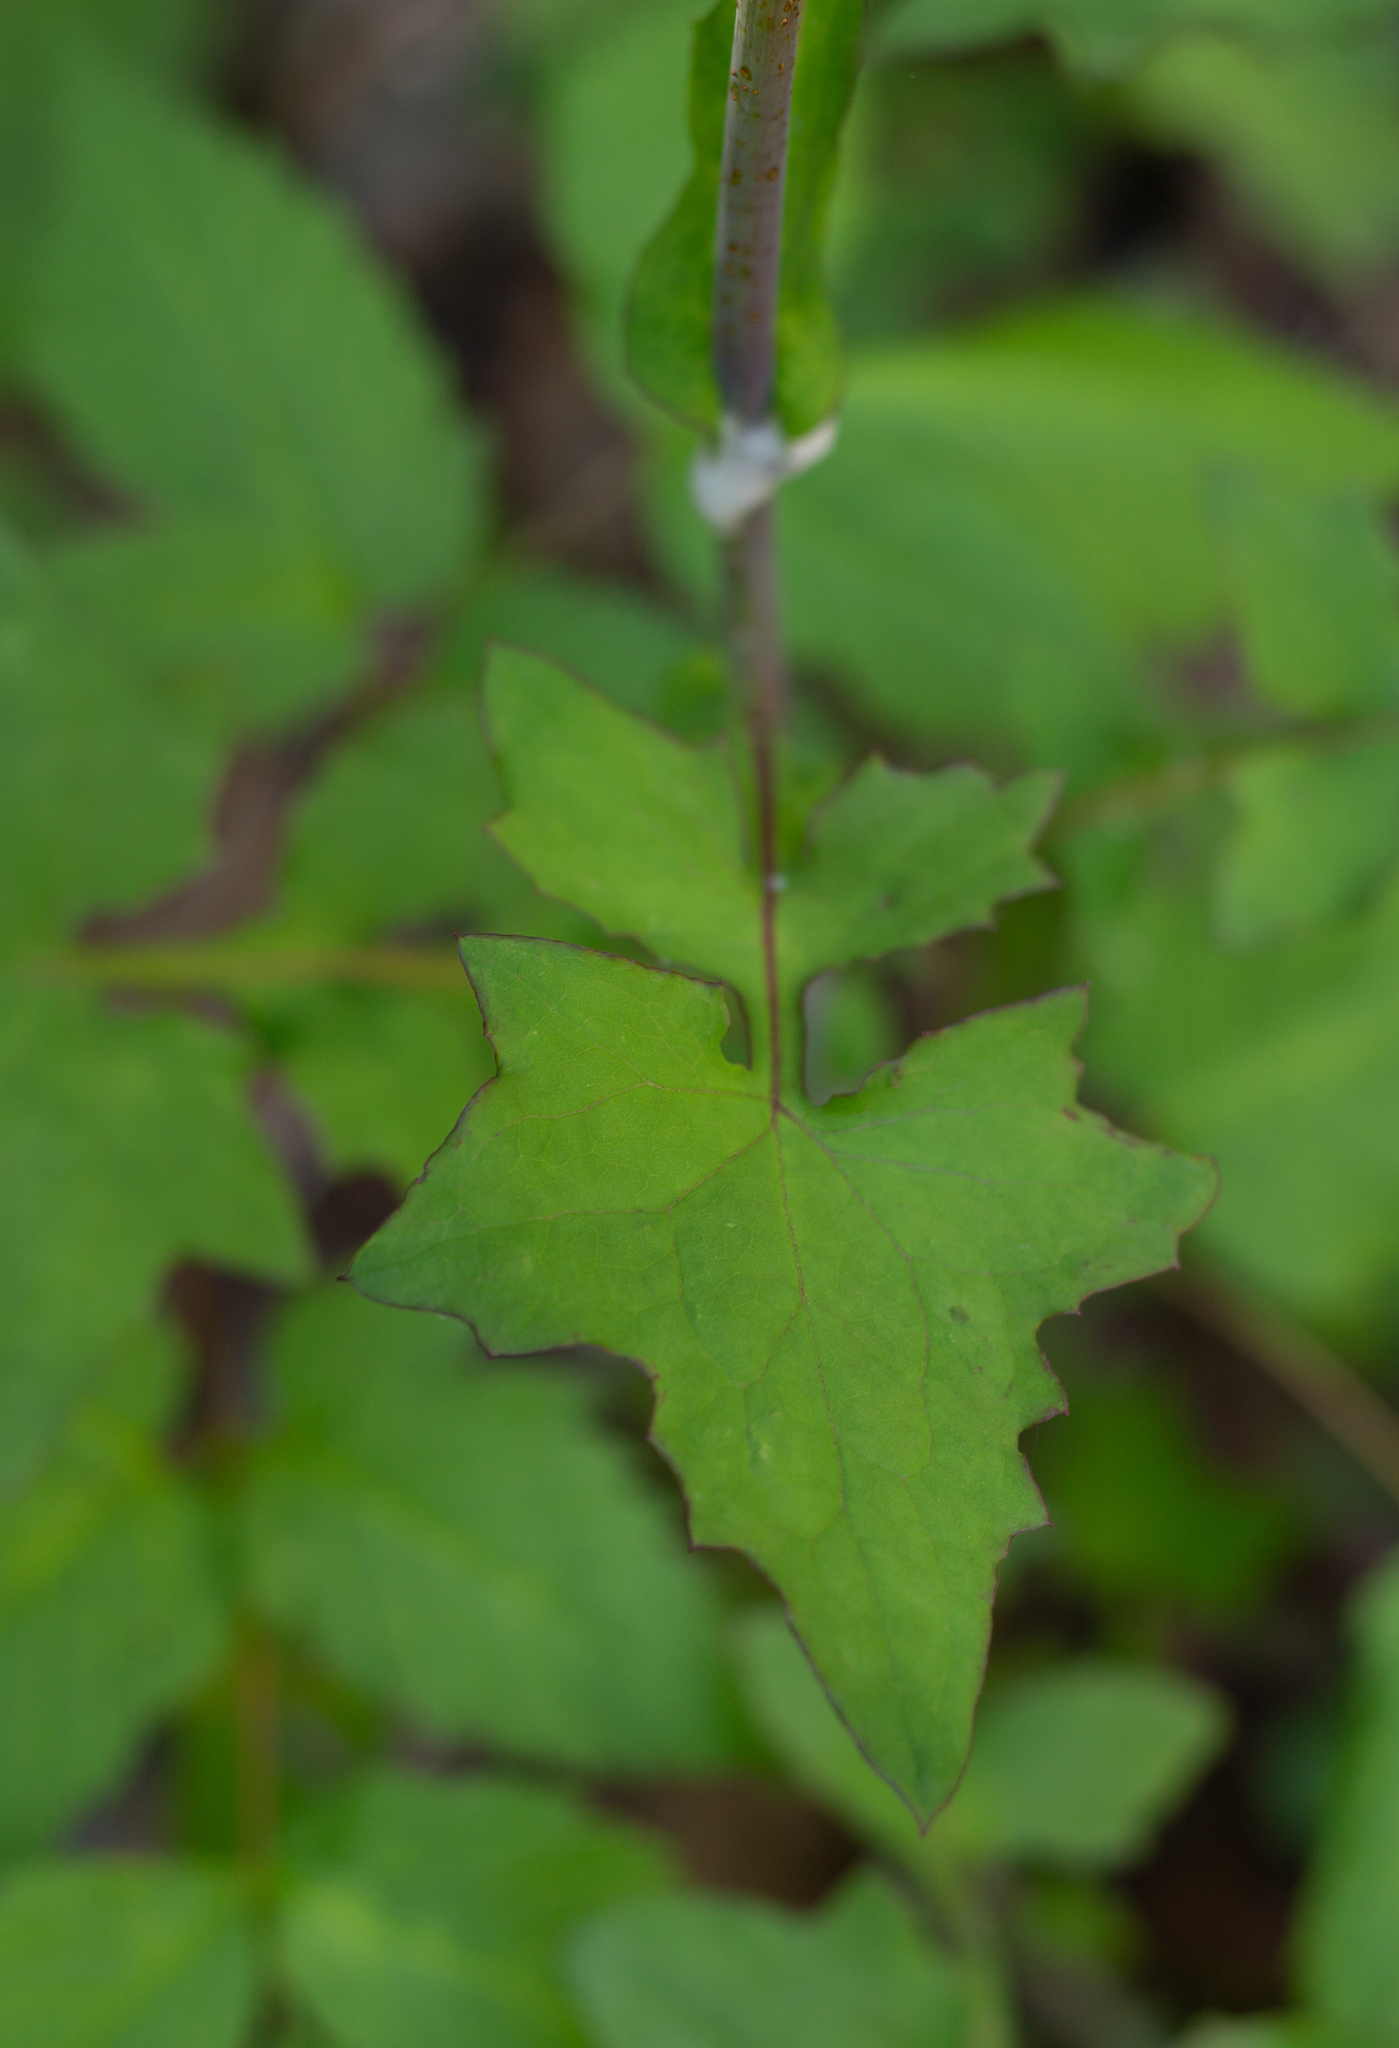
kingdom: Plantae
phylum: Tracheophyta
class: Magnoliopsida
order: Asterales
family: Asteraceae
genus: Mycelis
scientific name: Mycelis muralis
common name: Wall lettuce
